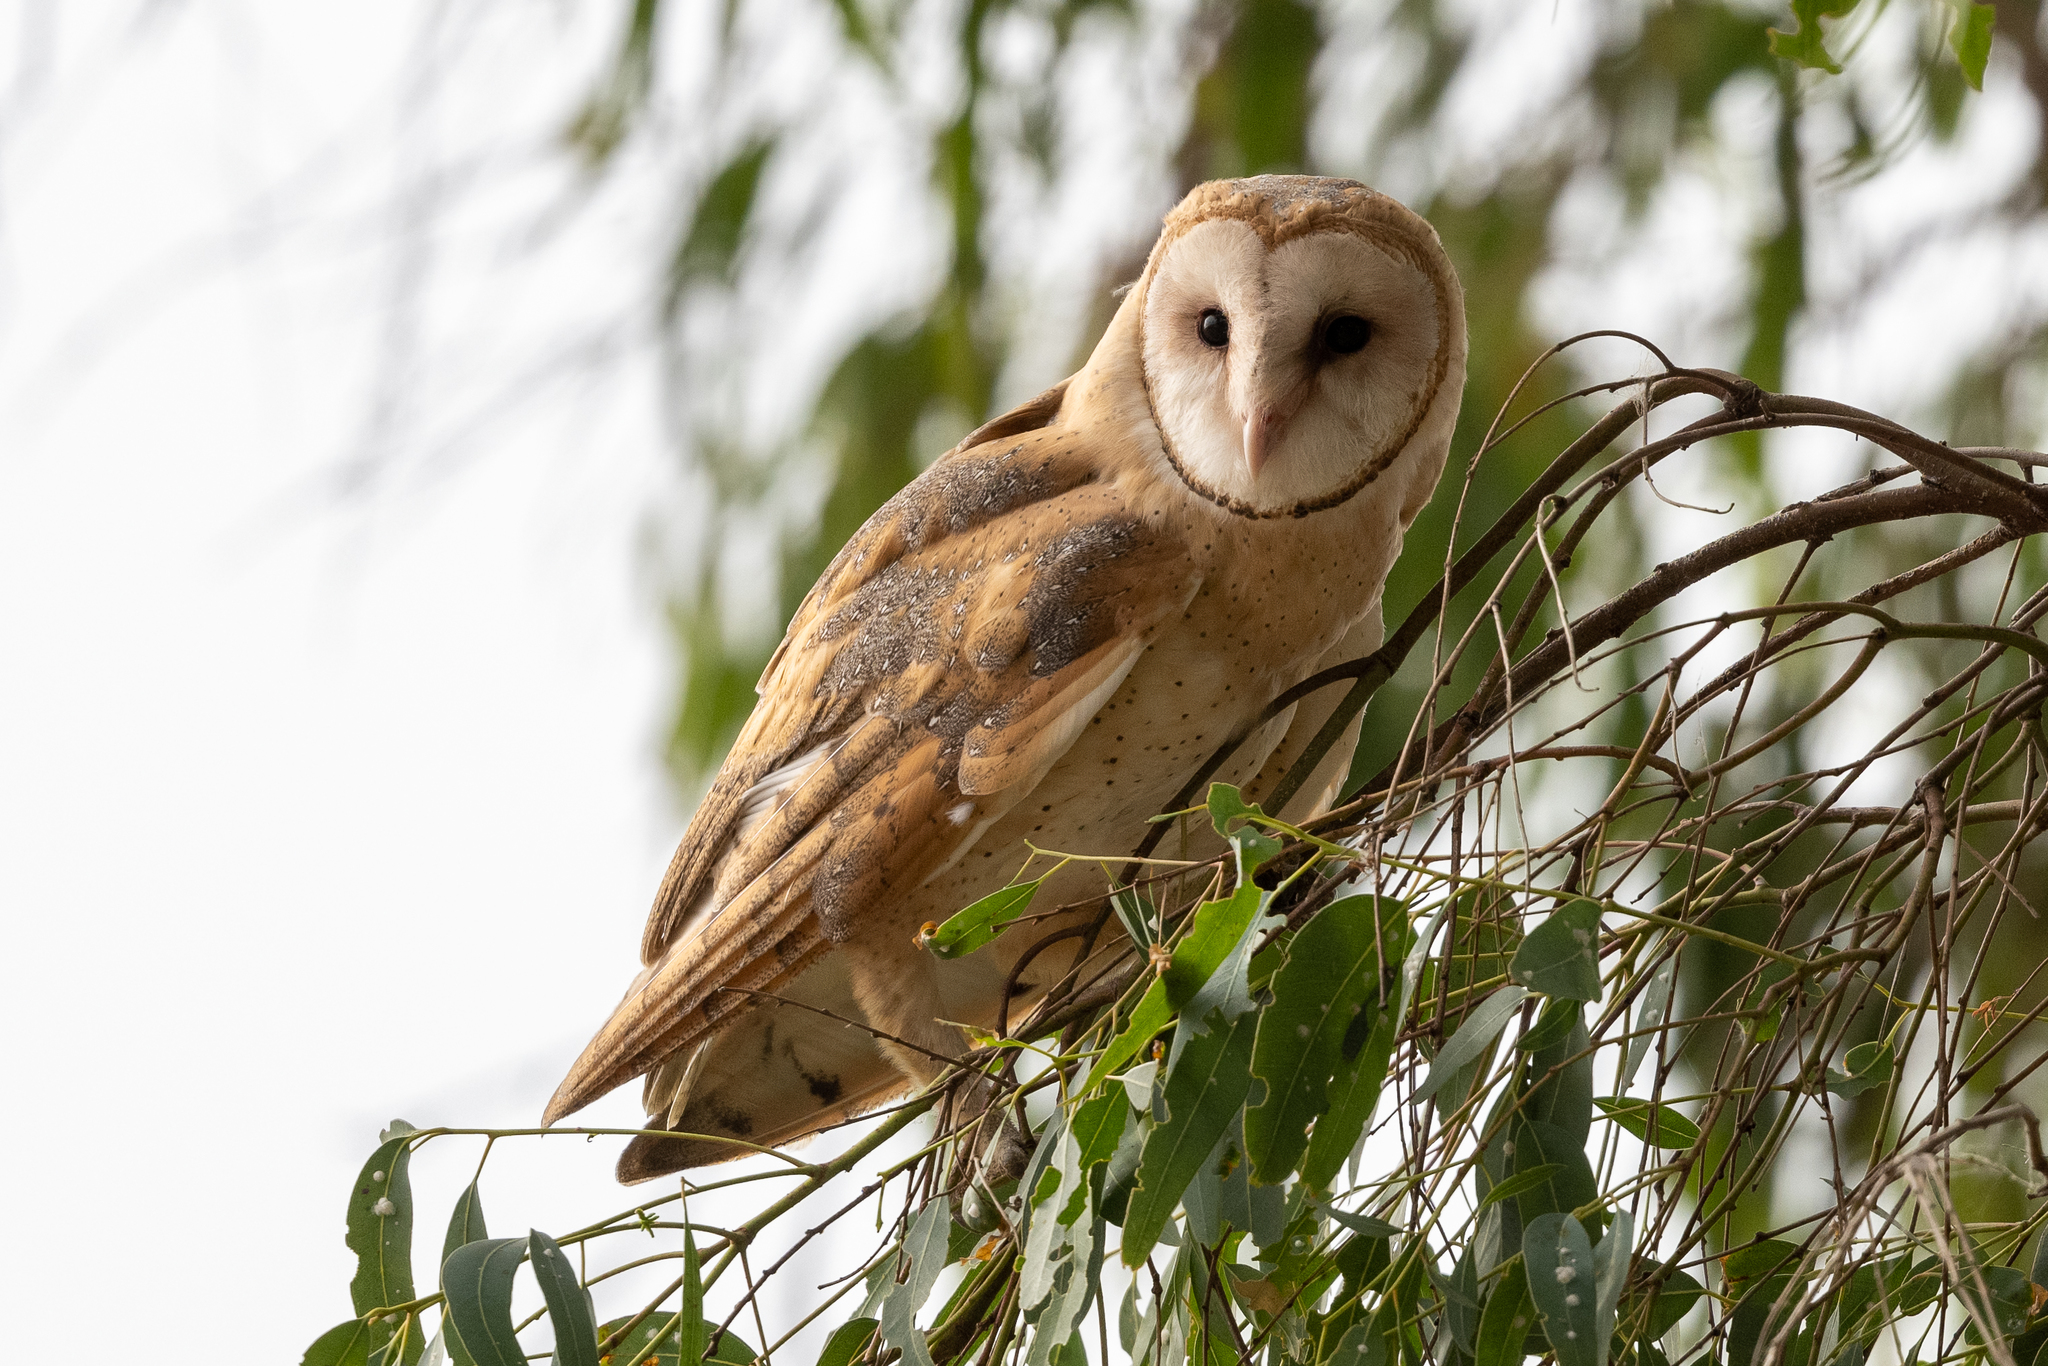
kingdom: Animalia
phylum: Chordata
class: Aves
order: Strigiformes
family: Tytonidae
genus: Tyto
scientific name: Tyto alba
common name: Barn owl
